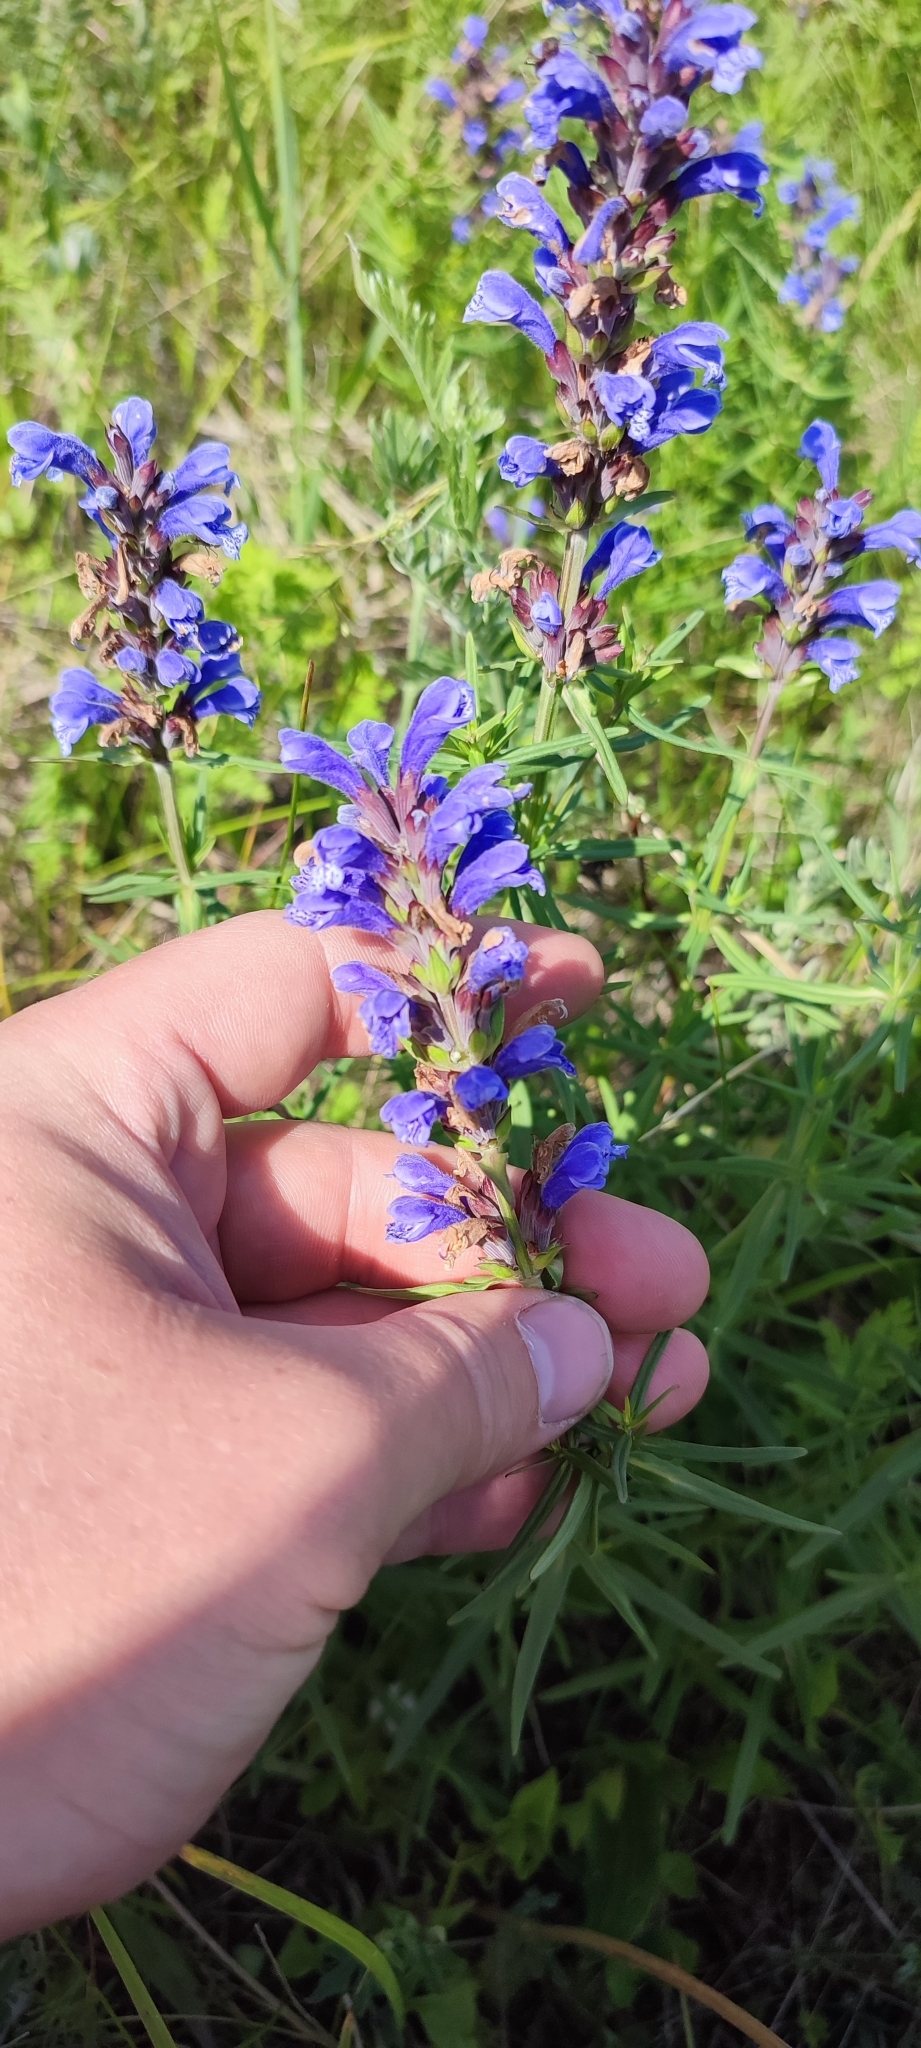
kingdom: Plantae
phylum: Tracheophyta
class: Magnoliopsida
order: Lamiales
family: Lamiaceae
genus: Dracocephalum
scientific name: Dracocephalum ruyschiana
